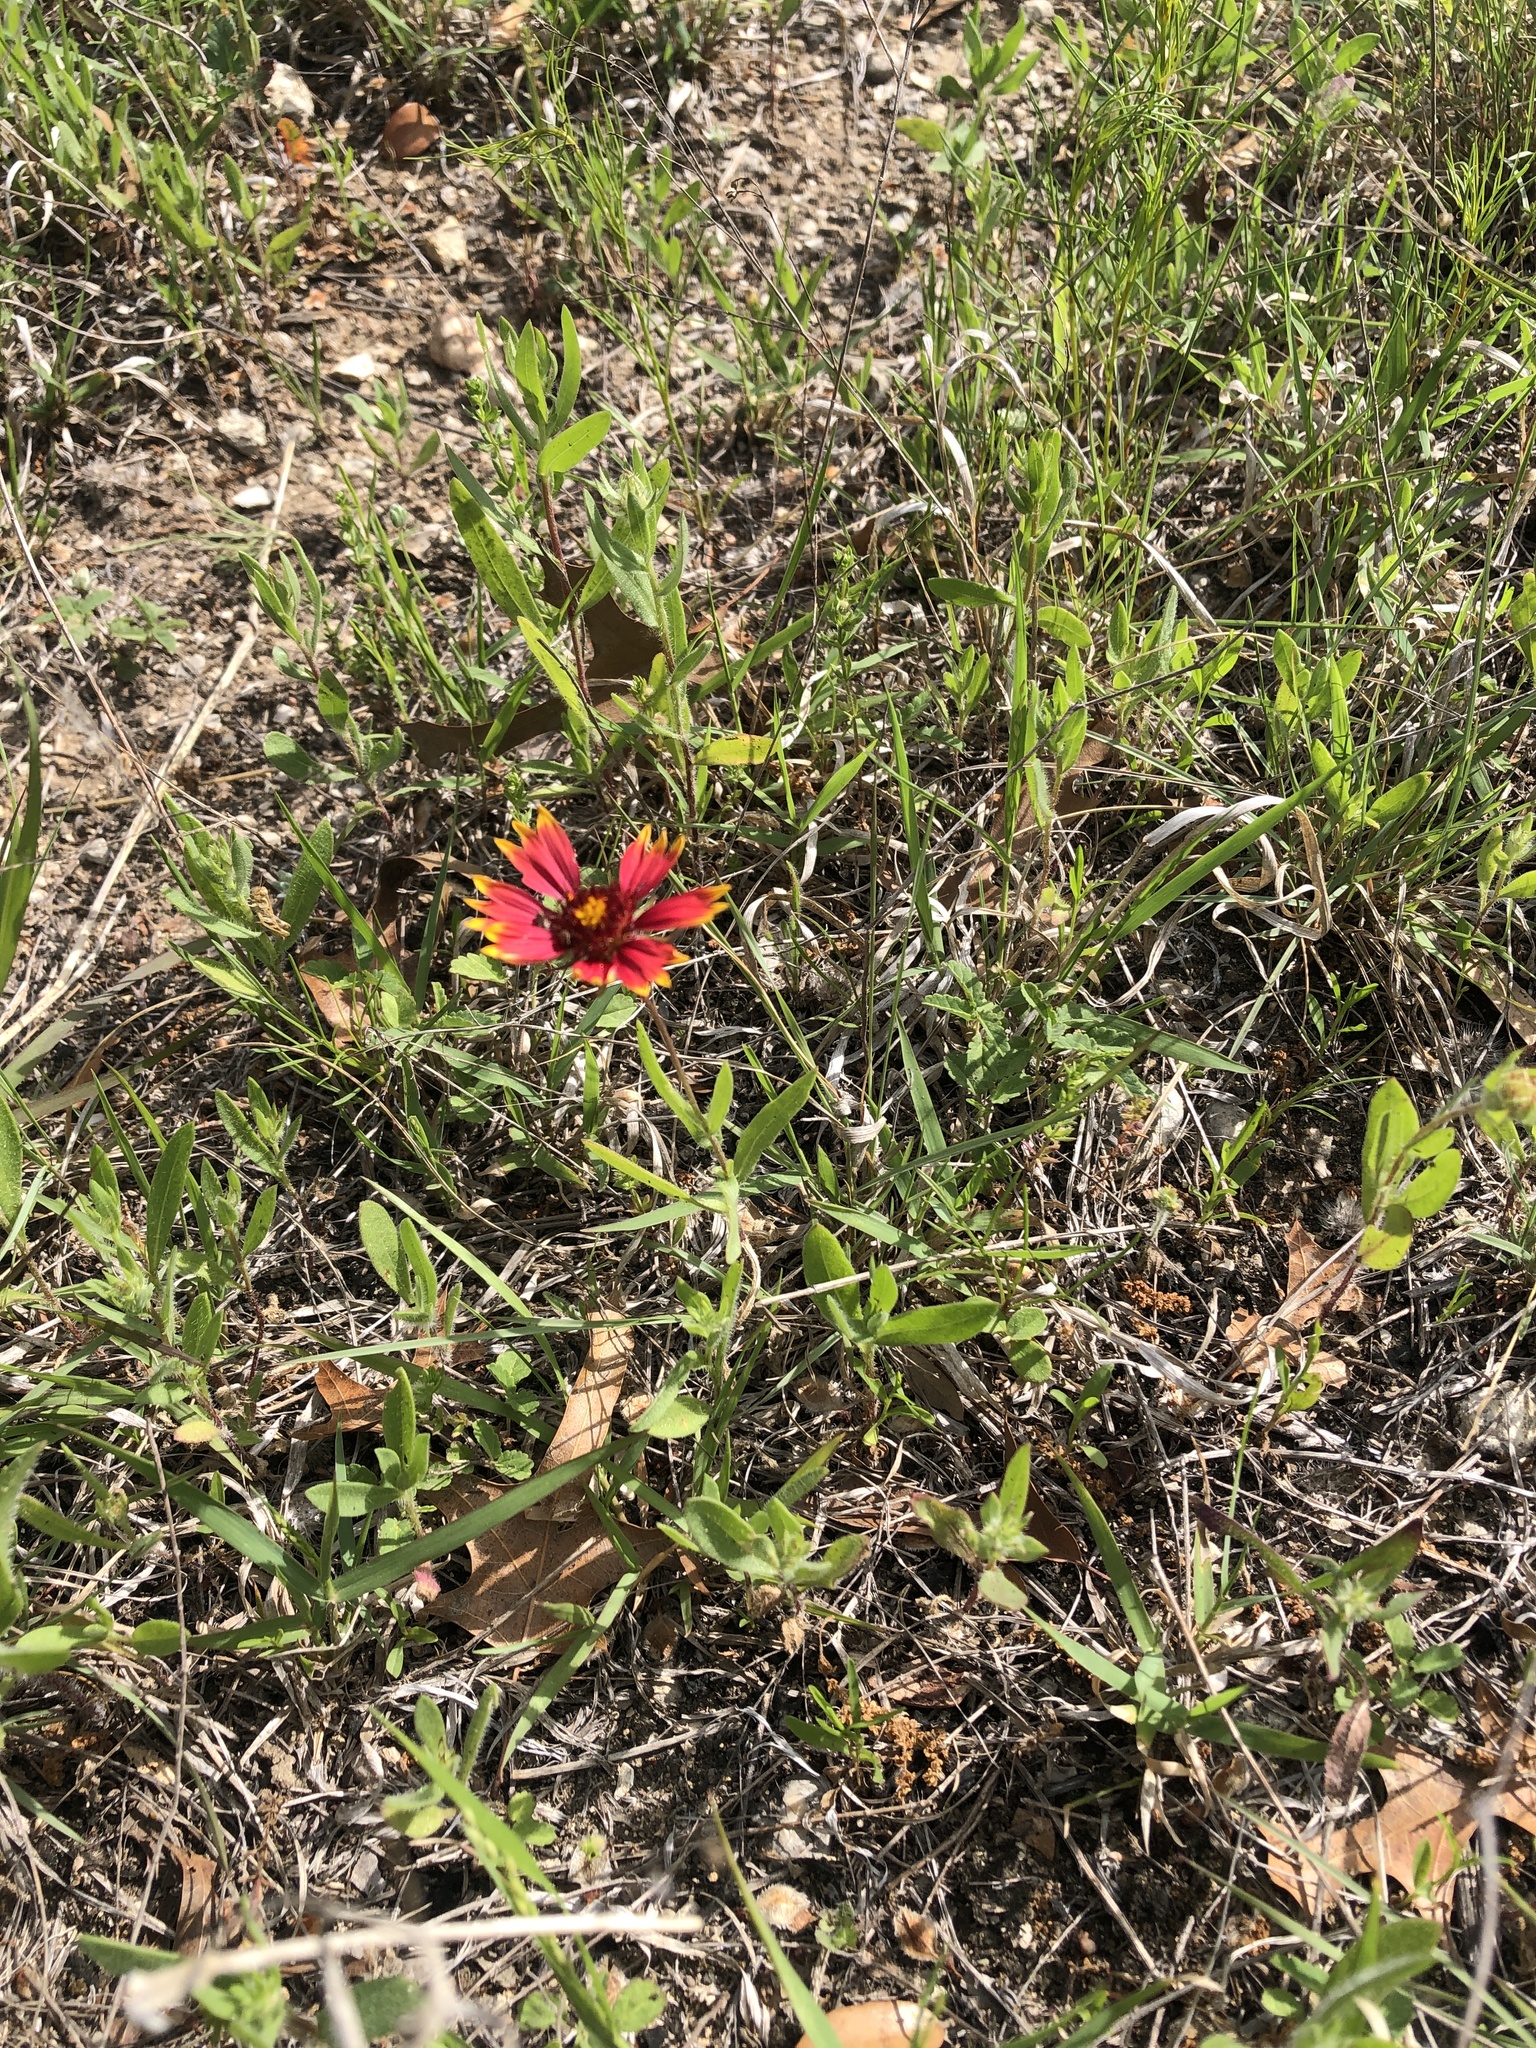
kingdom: Plantae
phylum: Tracheophyta
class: Magnoliopsida
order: Asterales
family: Asteraceae
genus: Gaillardia
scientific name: Gaillardia pulchella
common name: Firewheel
